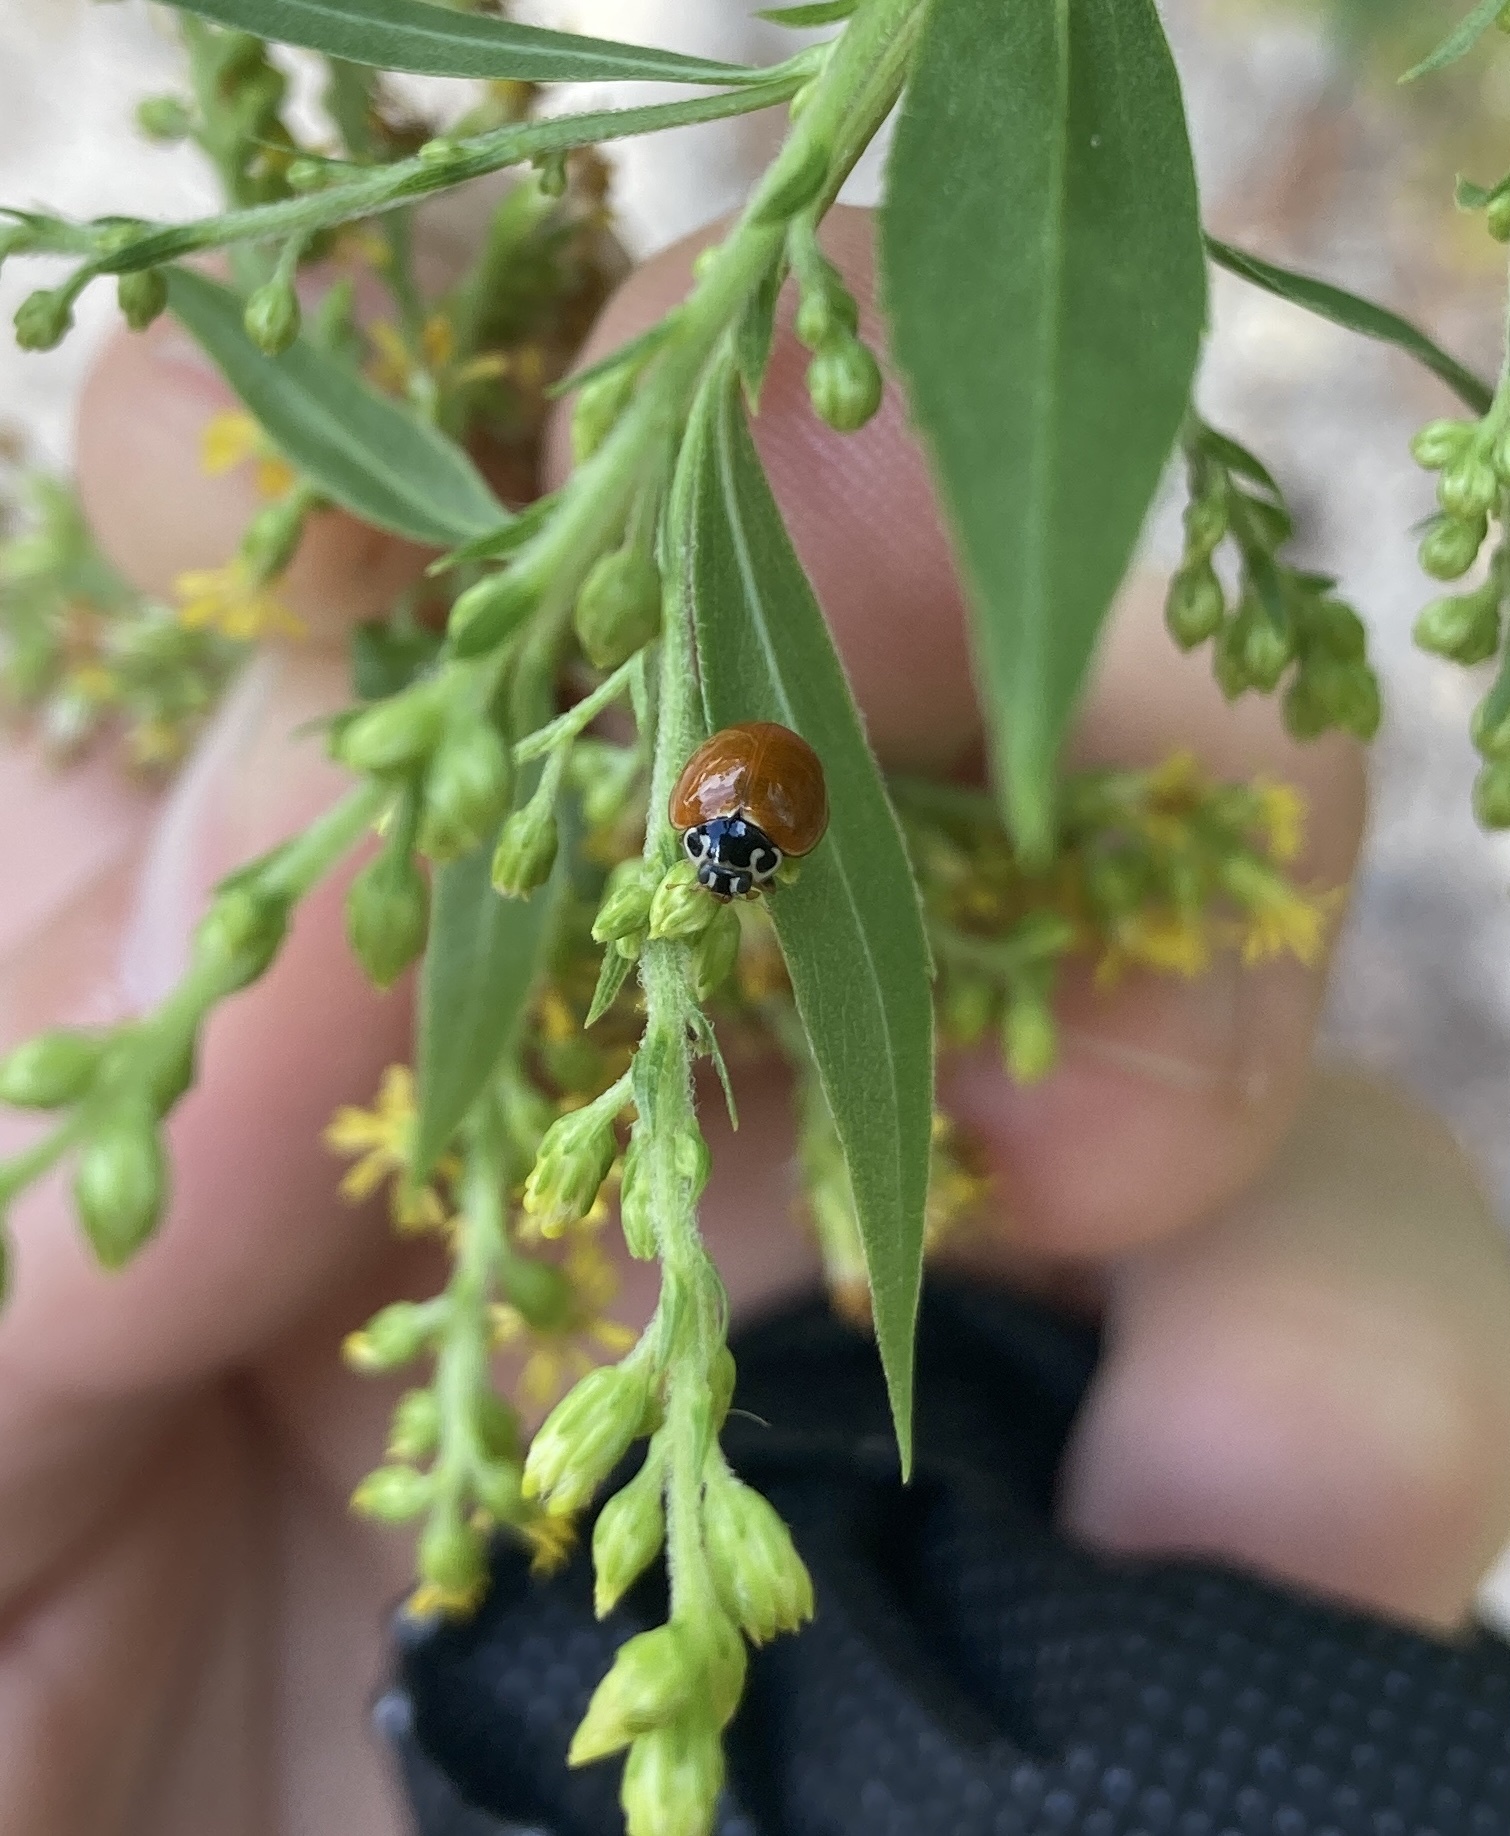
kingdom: Animalia
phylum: Arthropoda
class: Insecta
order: Coleoptera
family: Coccinellidae
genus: Cycloneda
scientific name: Cycloneda munda
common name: Polished lady beetle
